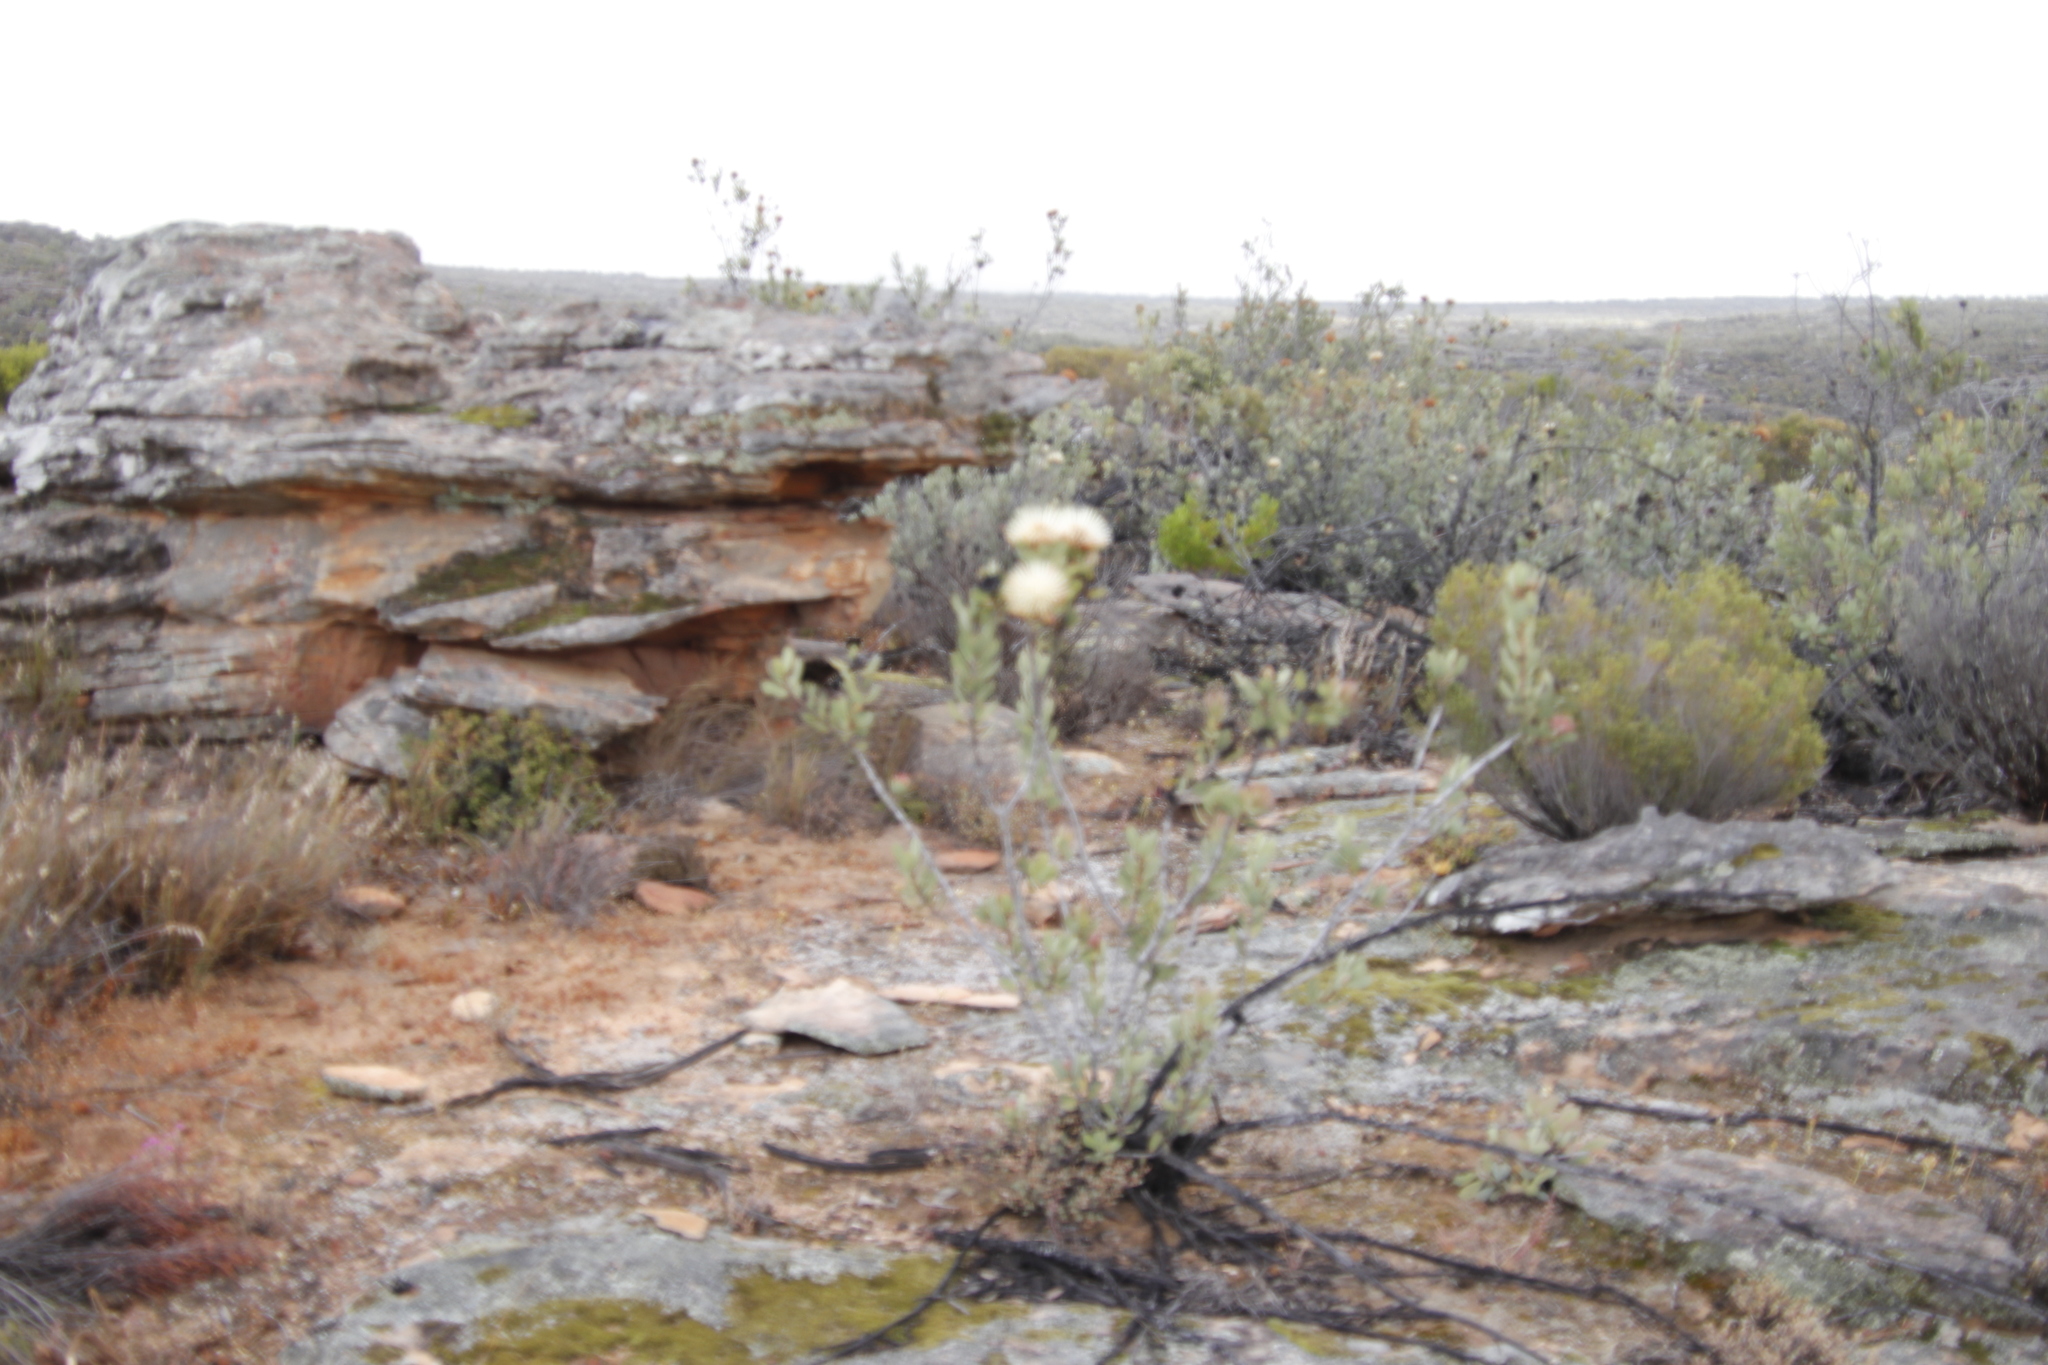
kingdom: Plantae
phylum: Tracheophyta
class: Magnoliopsida
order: Proteales
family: Proteaceae
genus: Protea
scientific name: Protea glabra
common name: Chestnut sugarbush
